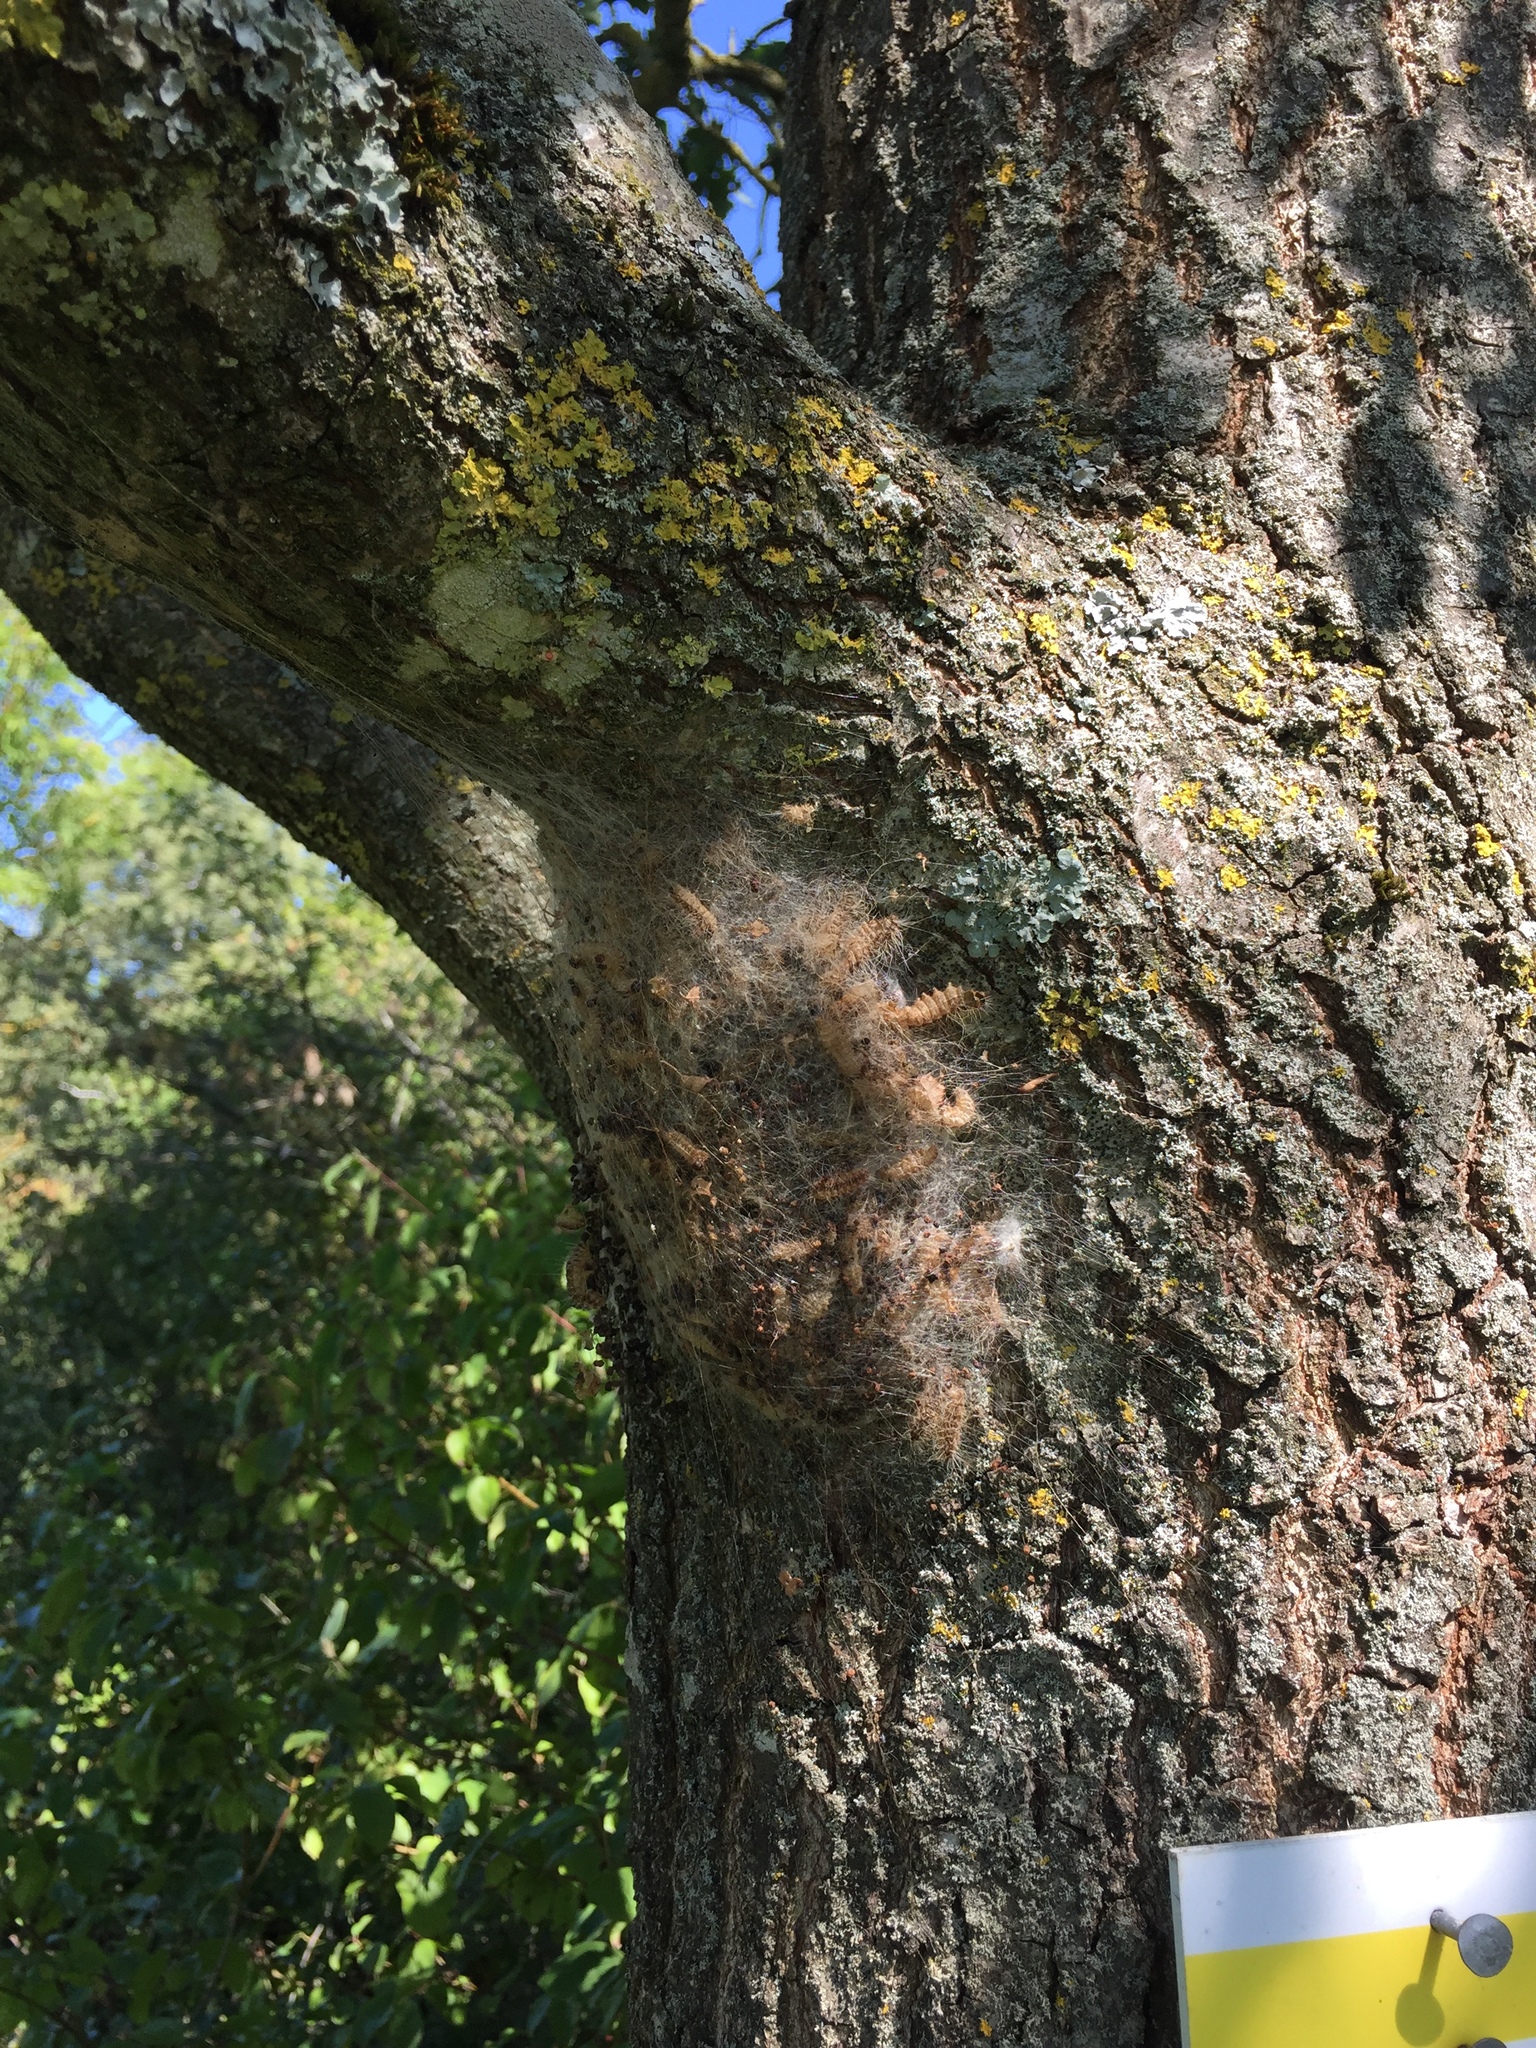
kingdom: Animalia
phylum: Arthropoda
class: Insecta
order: Lepidoptera
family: Notodontidae
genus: Thaumetopoea
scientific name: Thaumetopoea processionea
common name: Oak processionea
